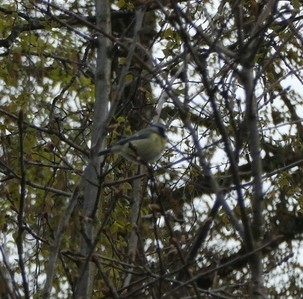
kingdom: Animalia
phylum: Chordata
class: Aves
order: Passeriformes
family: Paridae
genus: Cyanistes
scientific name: Cyanistes caeruleus
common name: Eurasian blue tit
